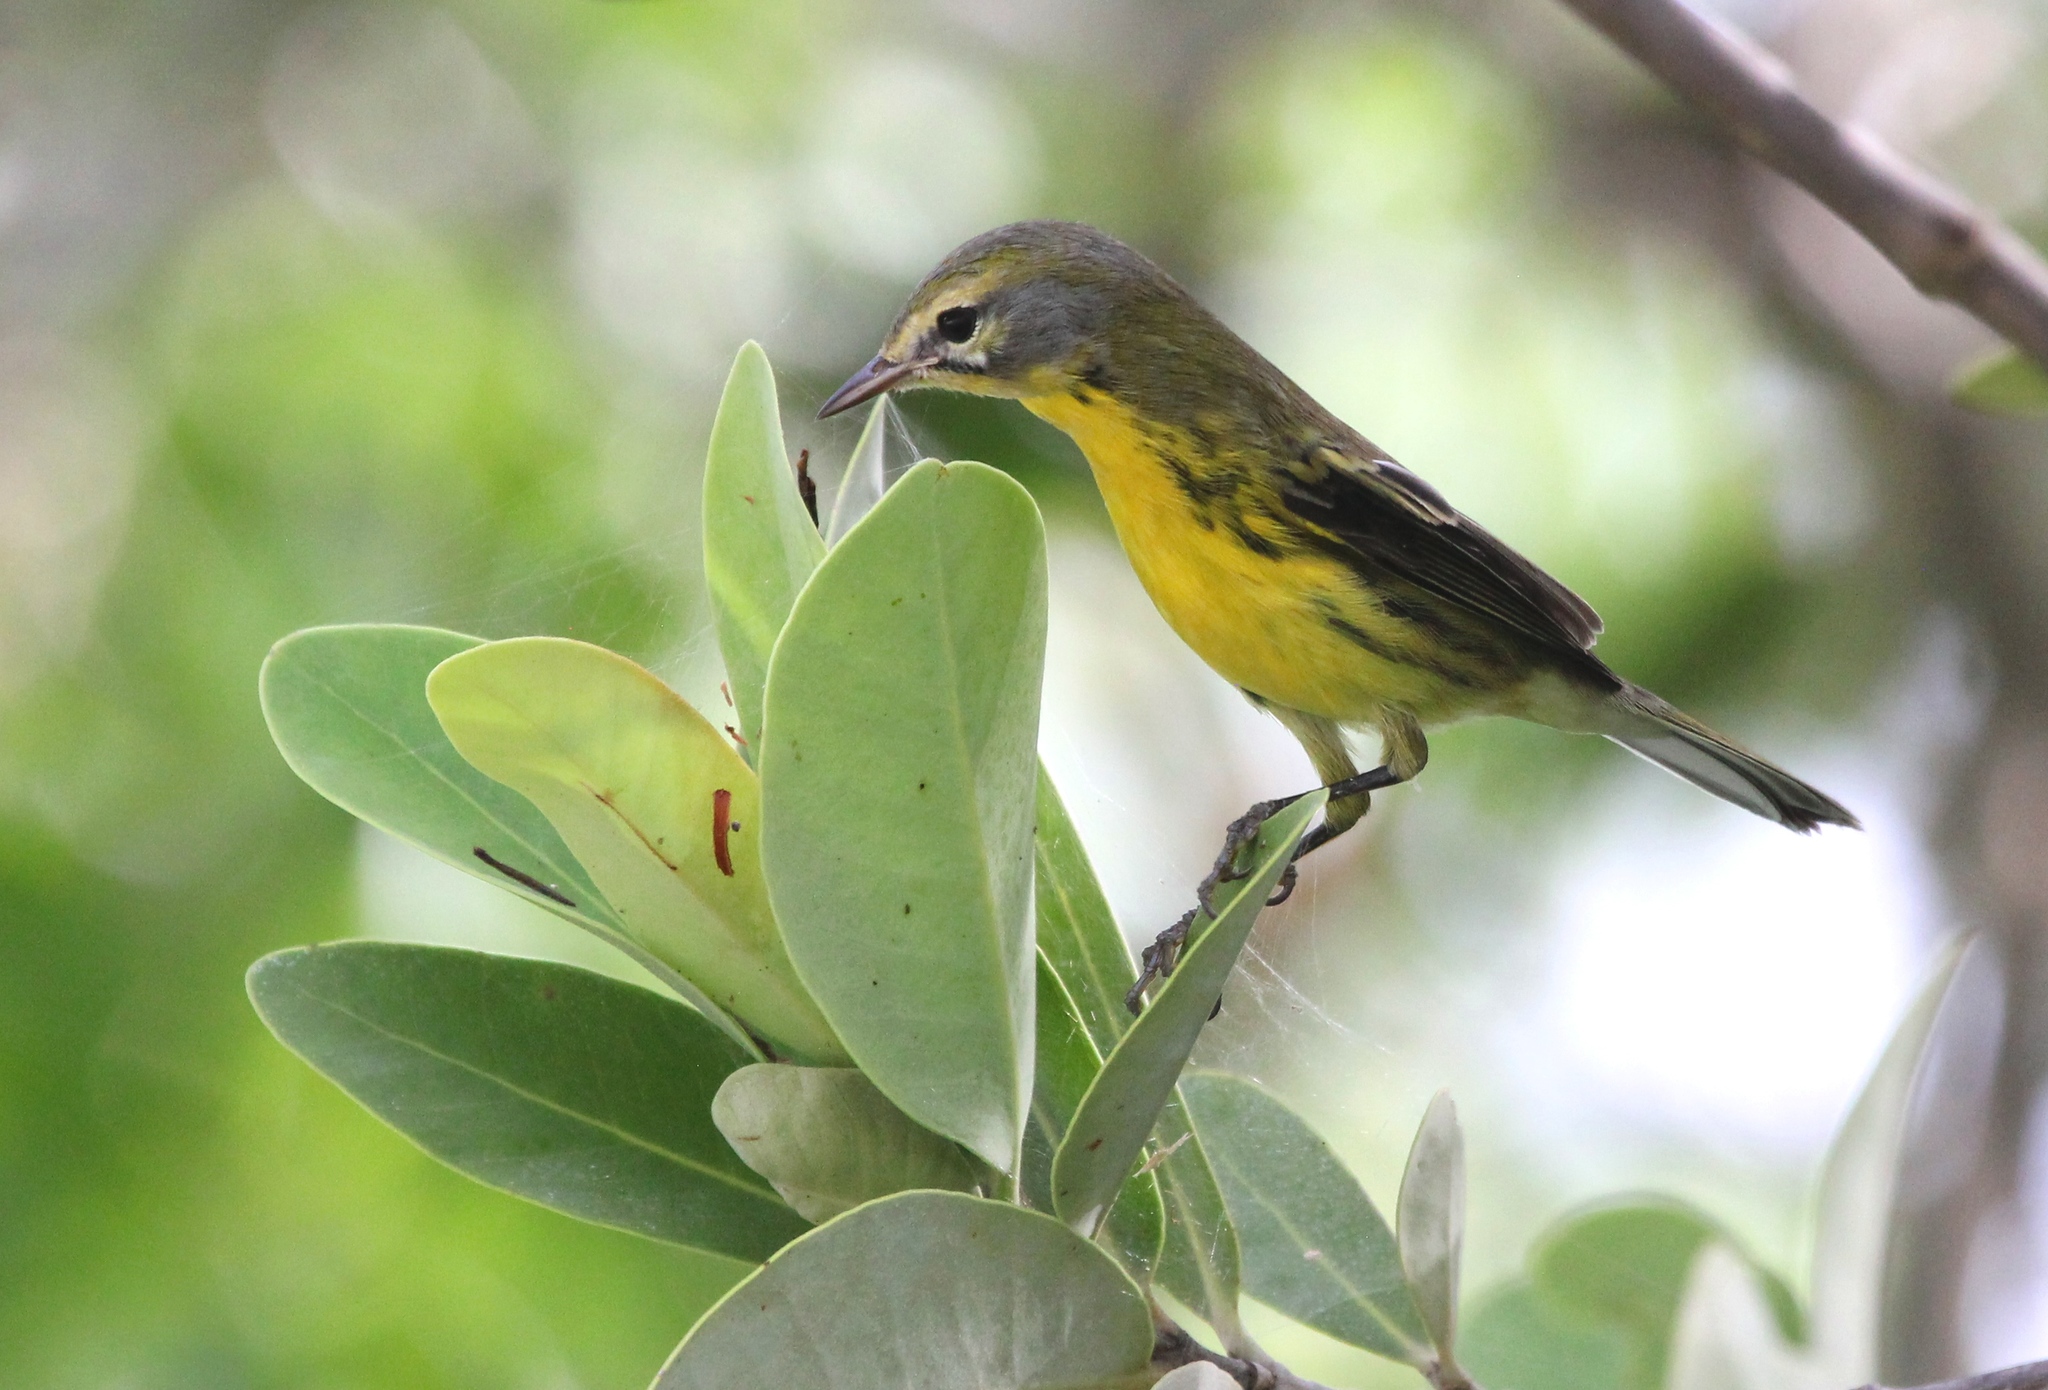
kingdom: Animalia
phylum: Chordata
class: Aves
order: Passeriformes
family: Parulidae
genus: Setophaga
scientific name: Setophaga discolor
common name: Prairie warbler
